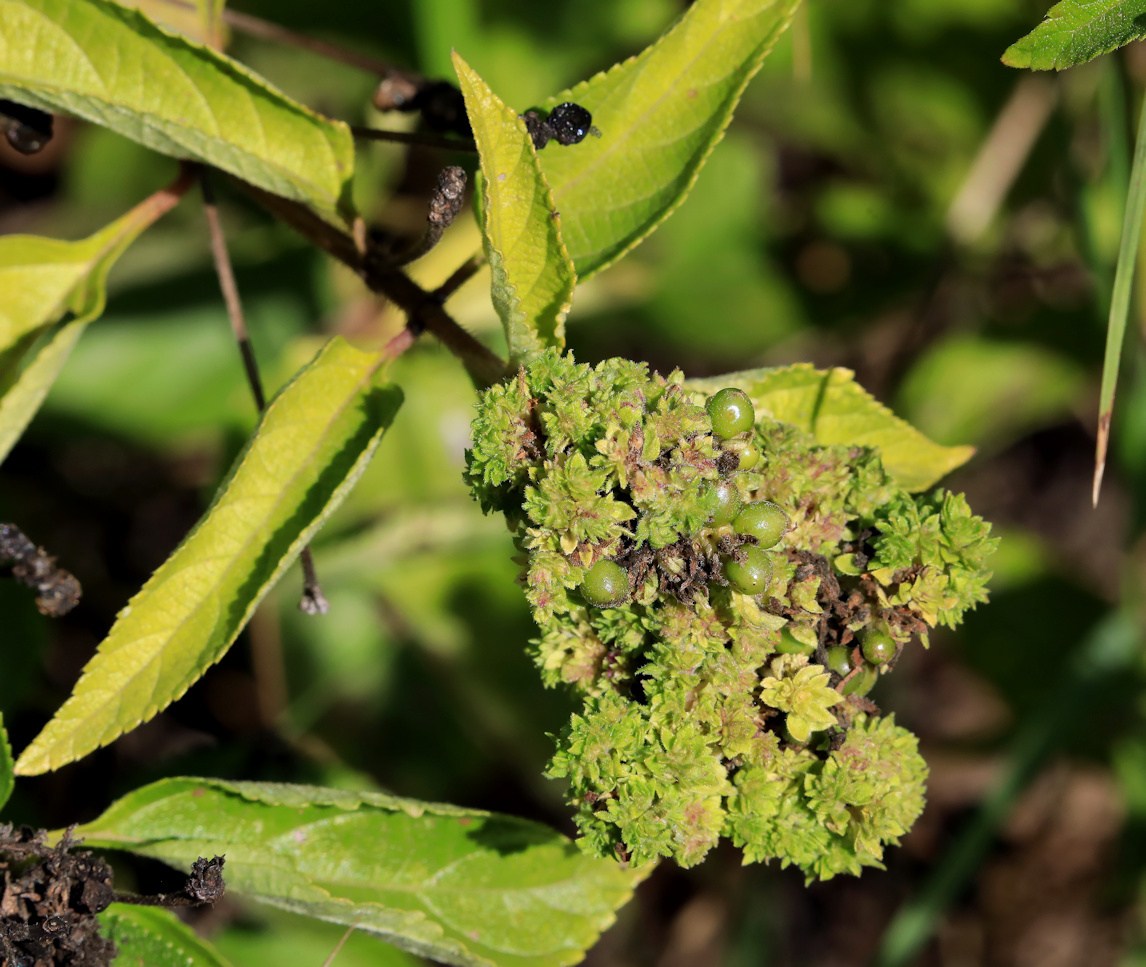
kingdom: Animalia
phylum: Arthropoda
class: Arachnida
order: Trombidiformes
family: Eriophyidae
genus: Aceria
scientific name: Aceria lantanae
